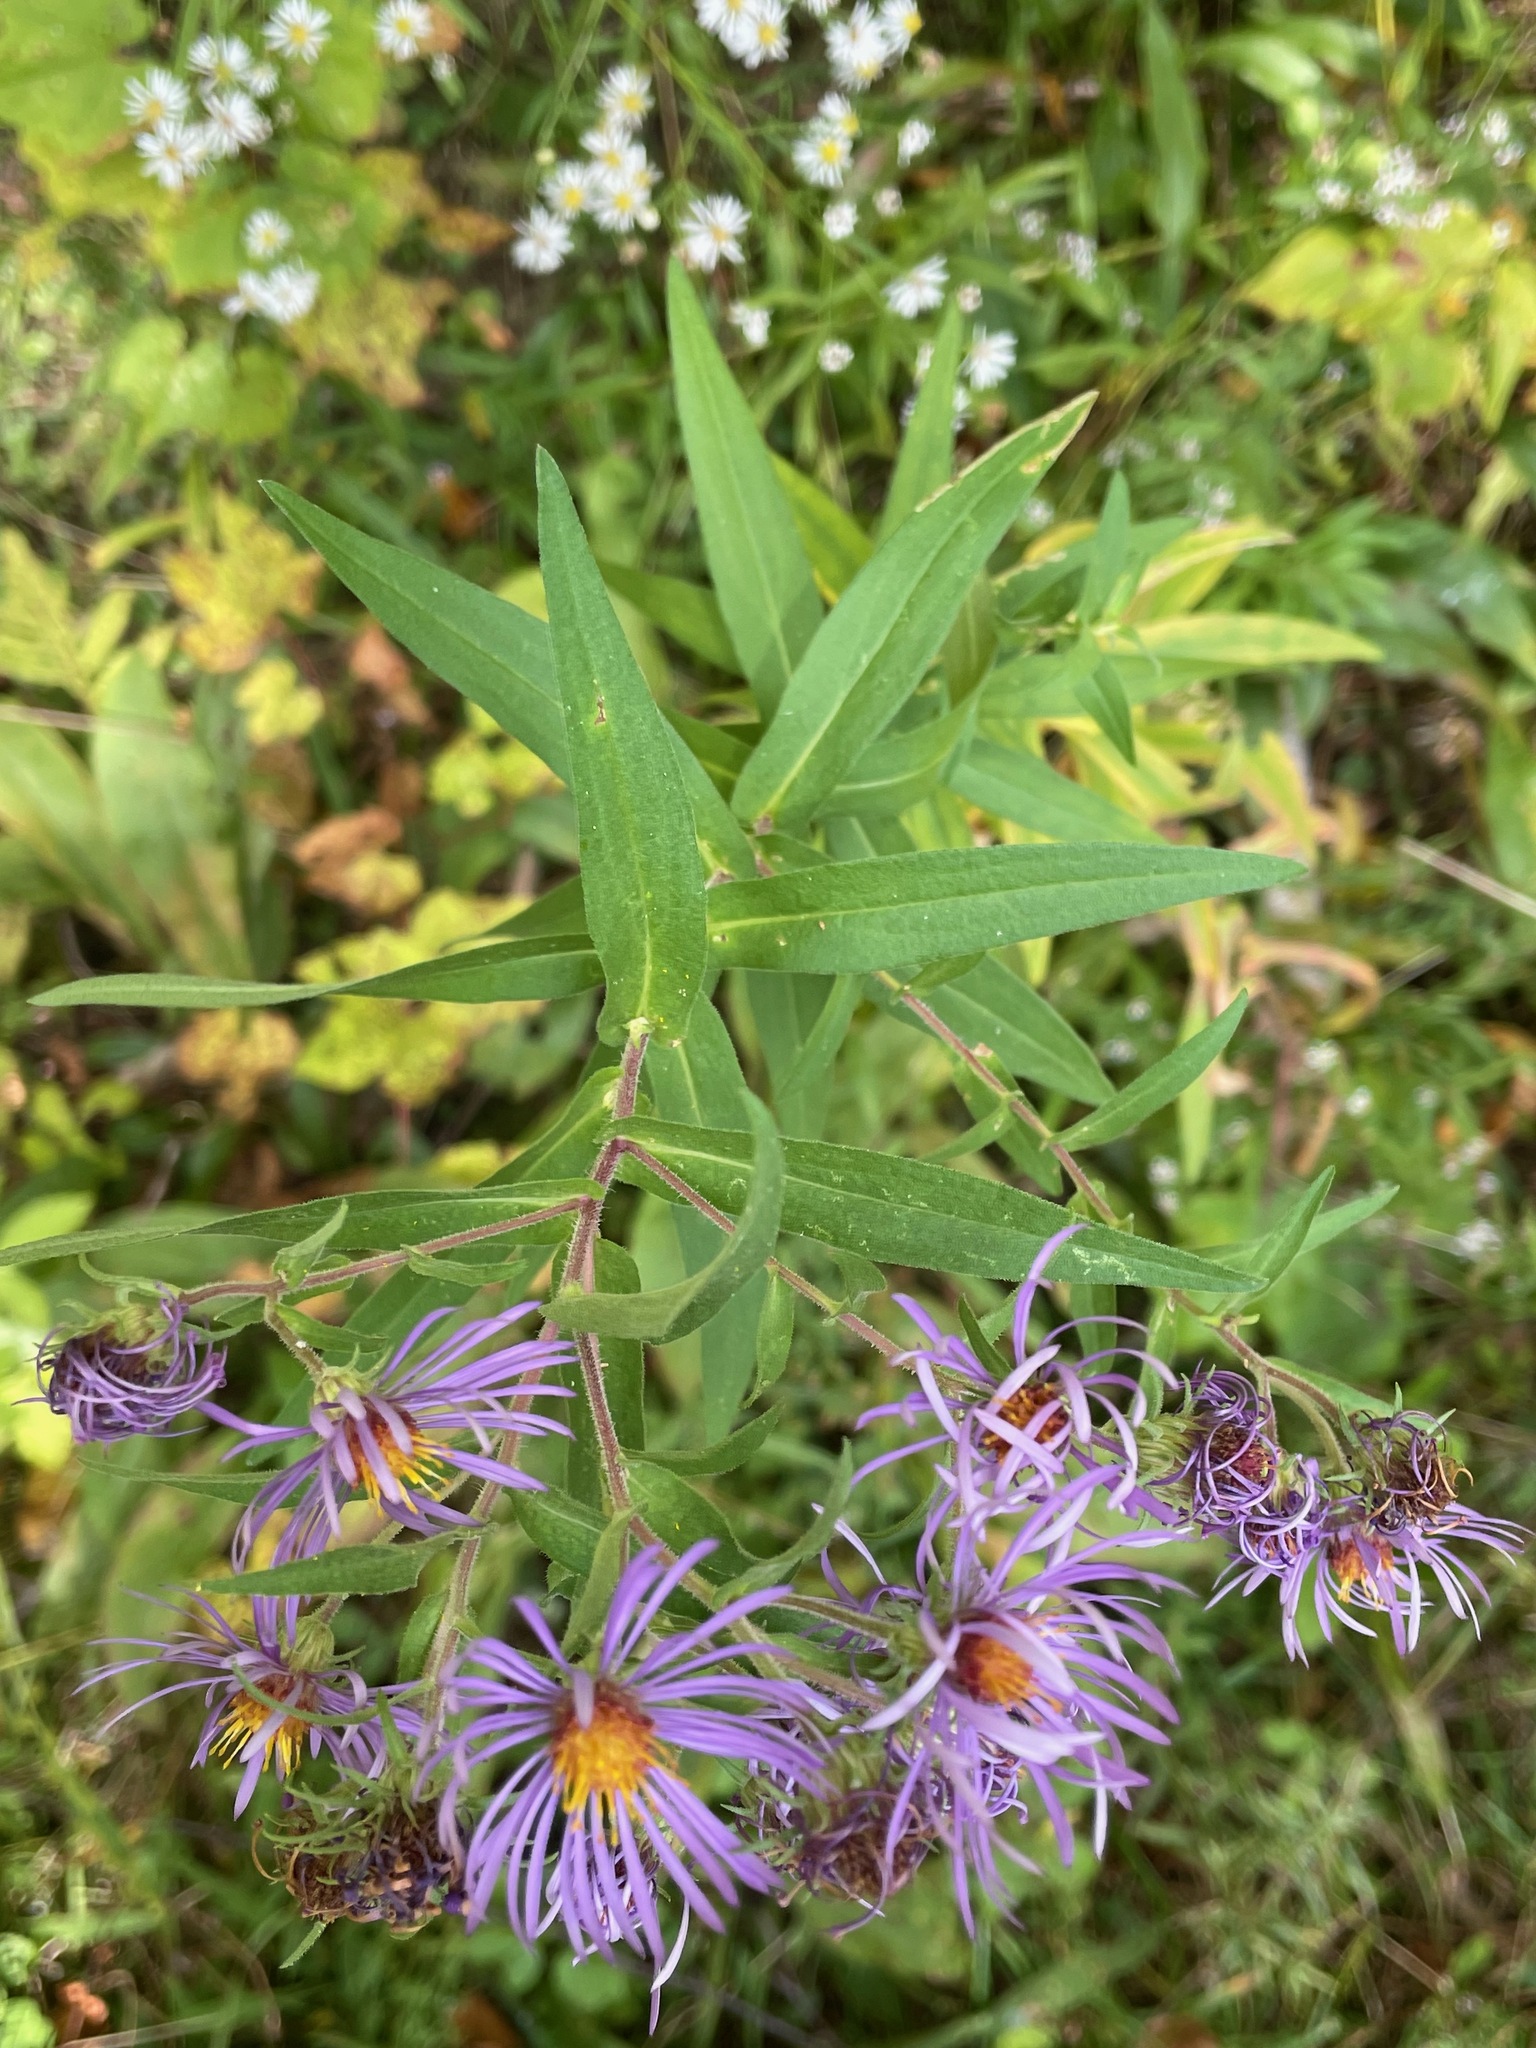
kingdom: Plantae
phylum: Tracheophyta
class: Magnoliopsida
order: Asterales
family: Asteraceae
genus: Symphyotrichum
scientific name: Symphyotrichum novae-angliae
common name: Michaelmas daisy
